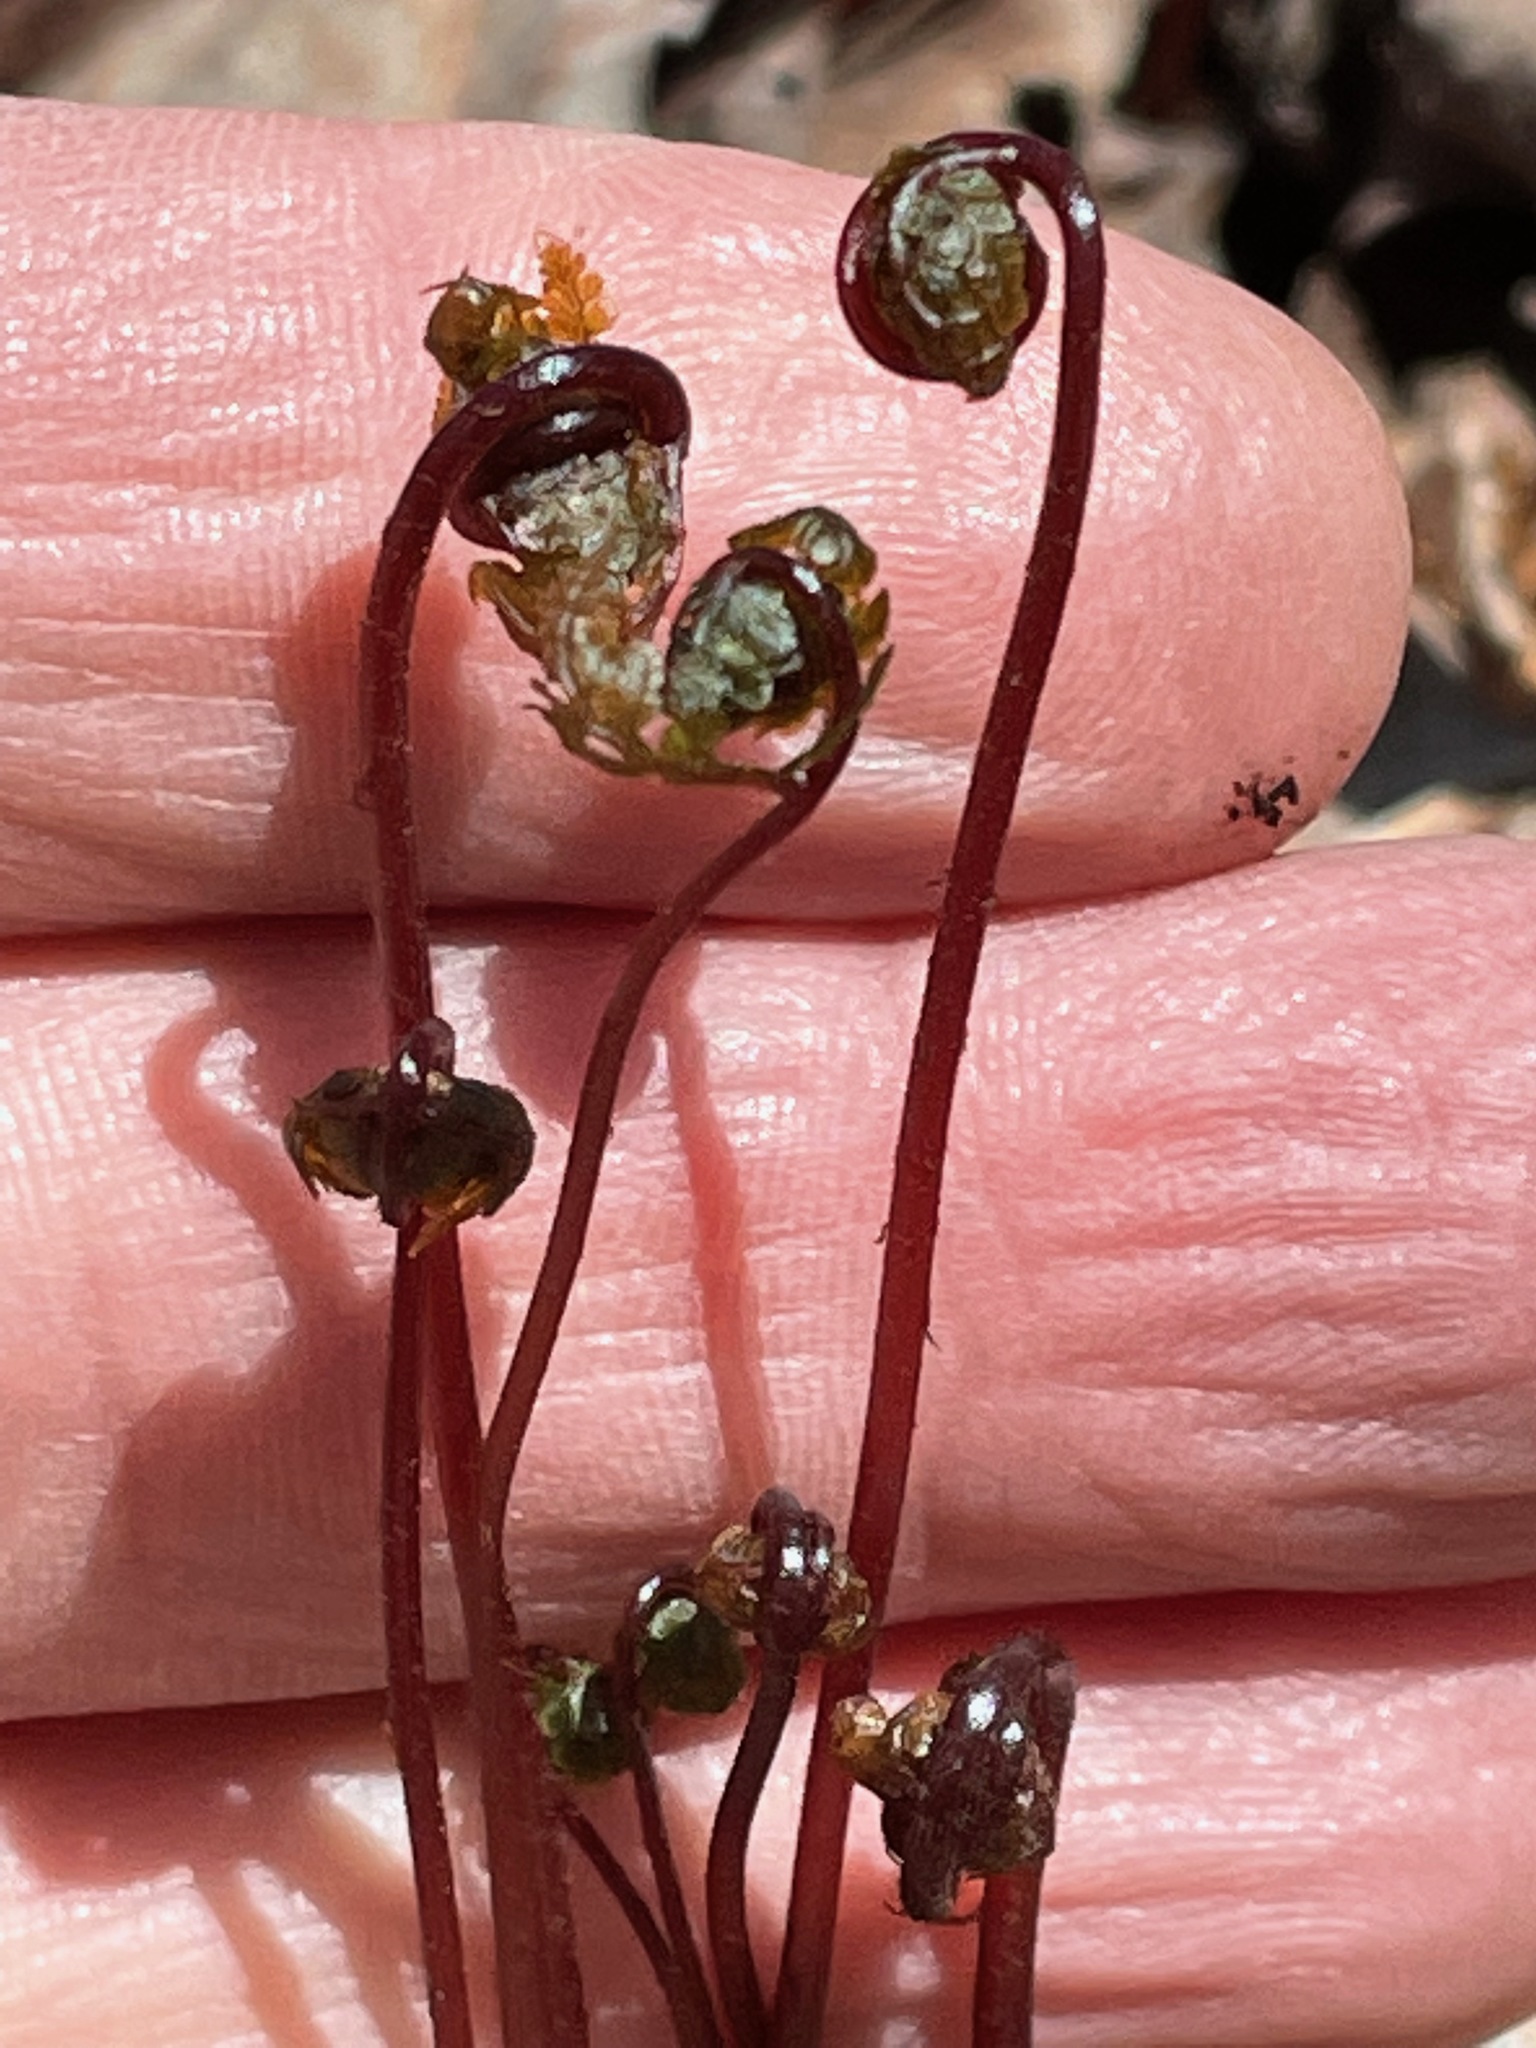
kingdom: Plantae
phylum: Tracheophyta
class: Polypodiopsida
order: Polypodiales
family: Onocleaceae
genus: Onoclea
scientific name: Onoclea sensibilis
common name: Sensitive fern
